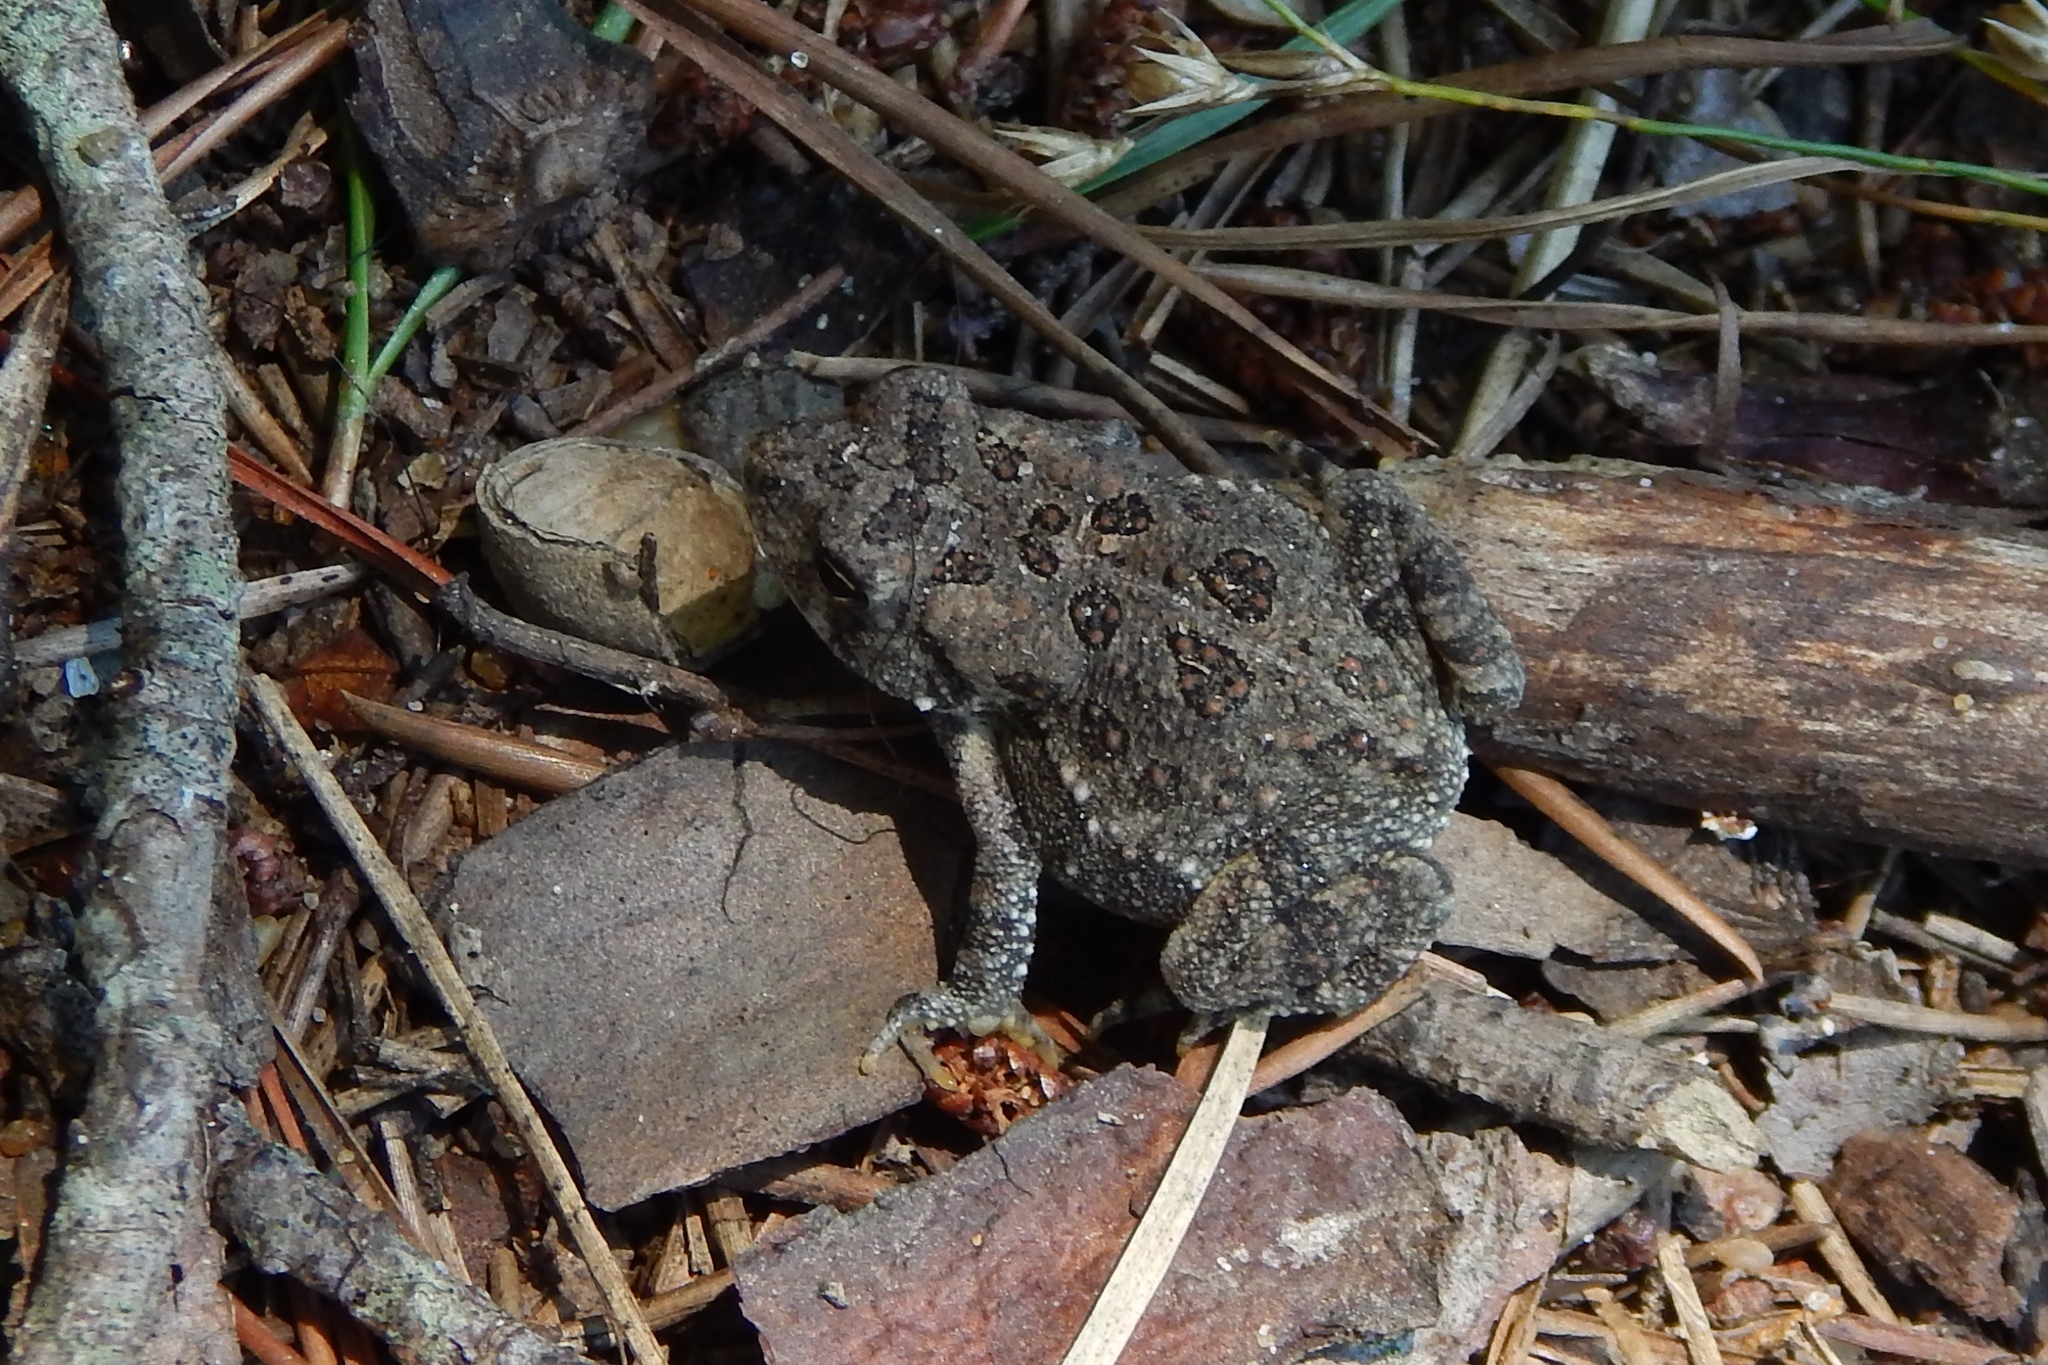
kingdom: Animalia
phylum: Chordata
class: Amphibia
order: Anura
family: Bufonidae
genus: Anaxyrus
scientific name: Anaxyrus fowleri
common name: Fowler's toad
